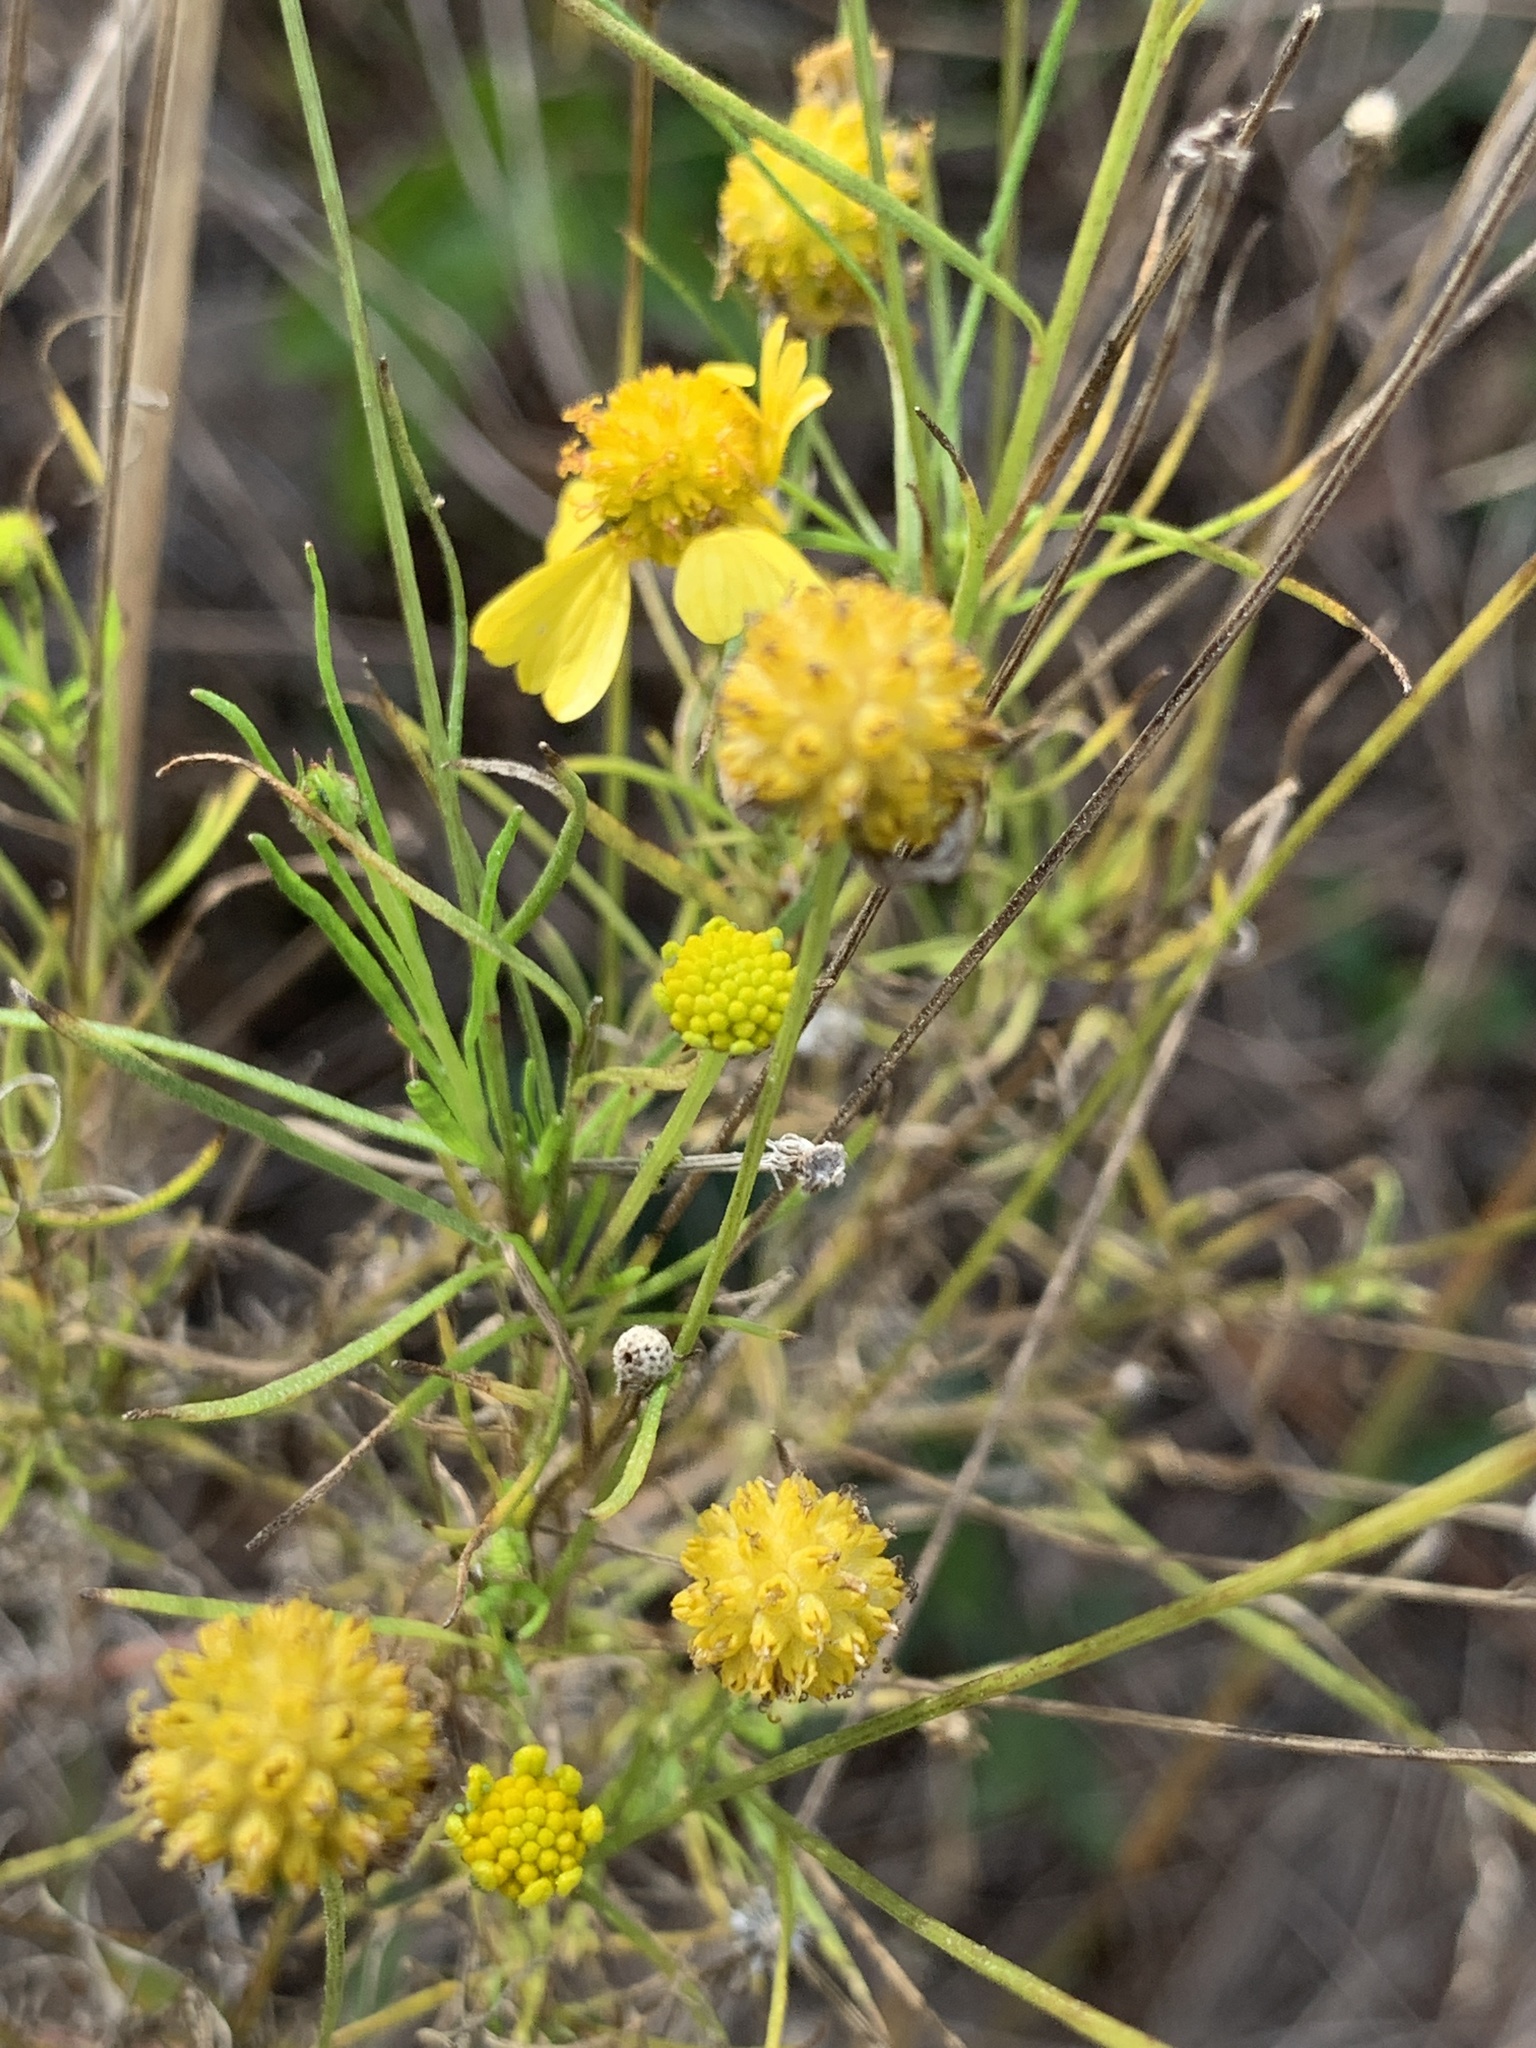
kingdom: Plantae
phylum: Tracheophyta
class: Magnoliopsida
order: Asterales
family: Asteraceae
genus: Helenium
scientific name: Helenium amarum
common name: Bitter sneezeweed
